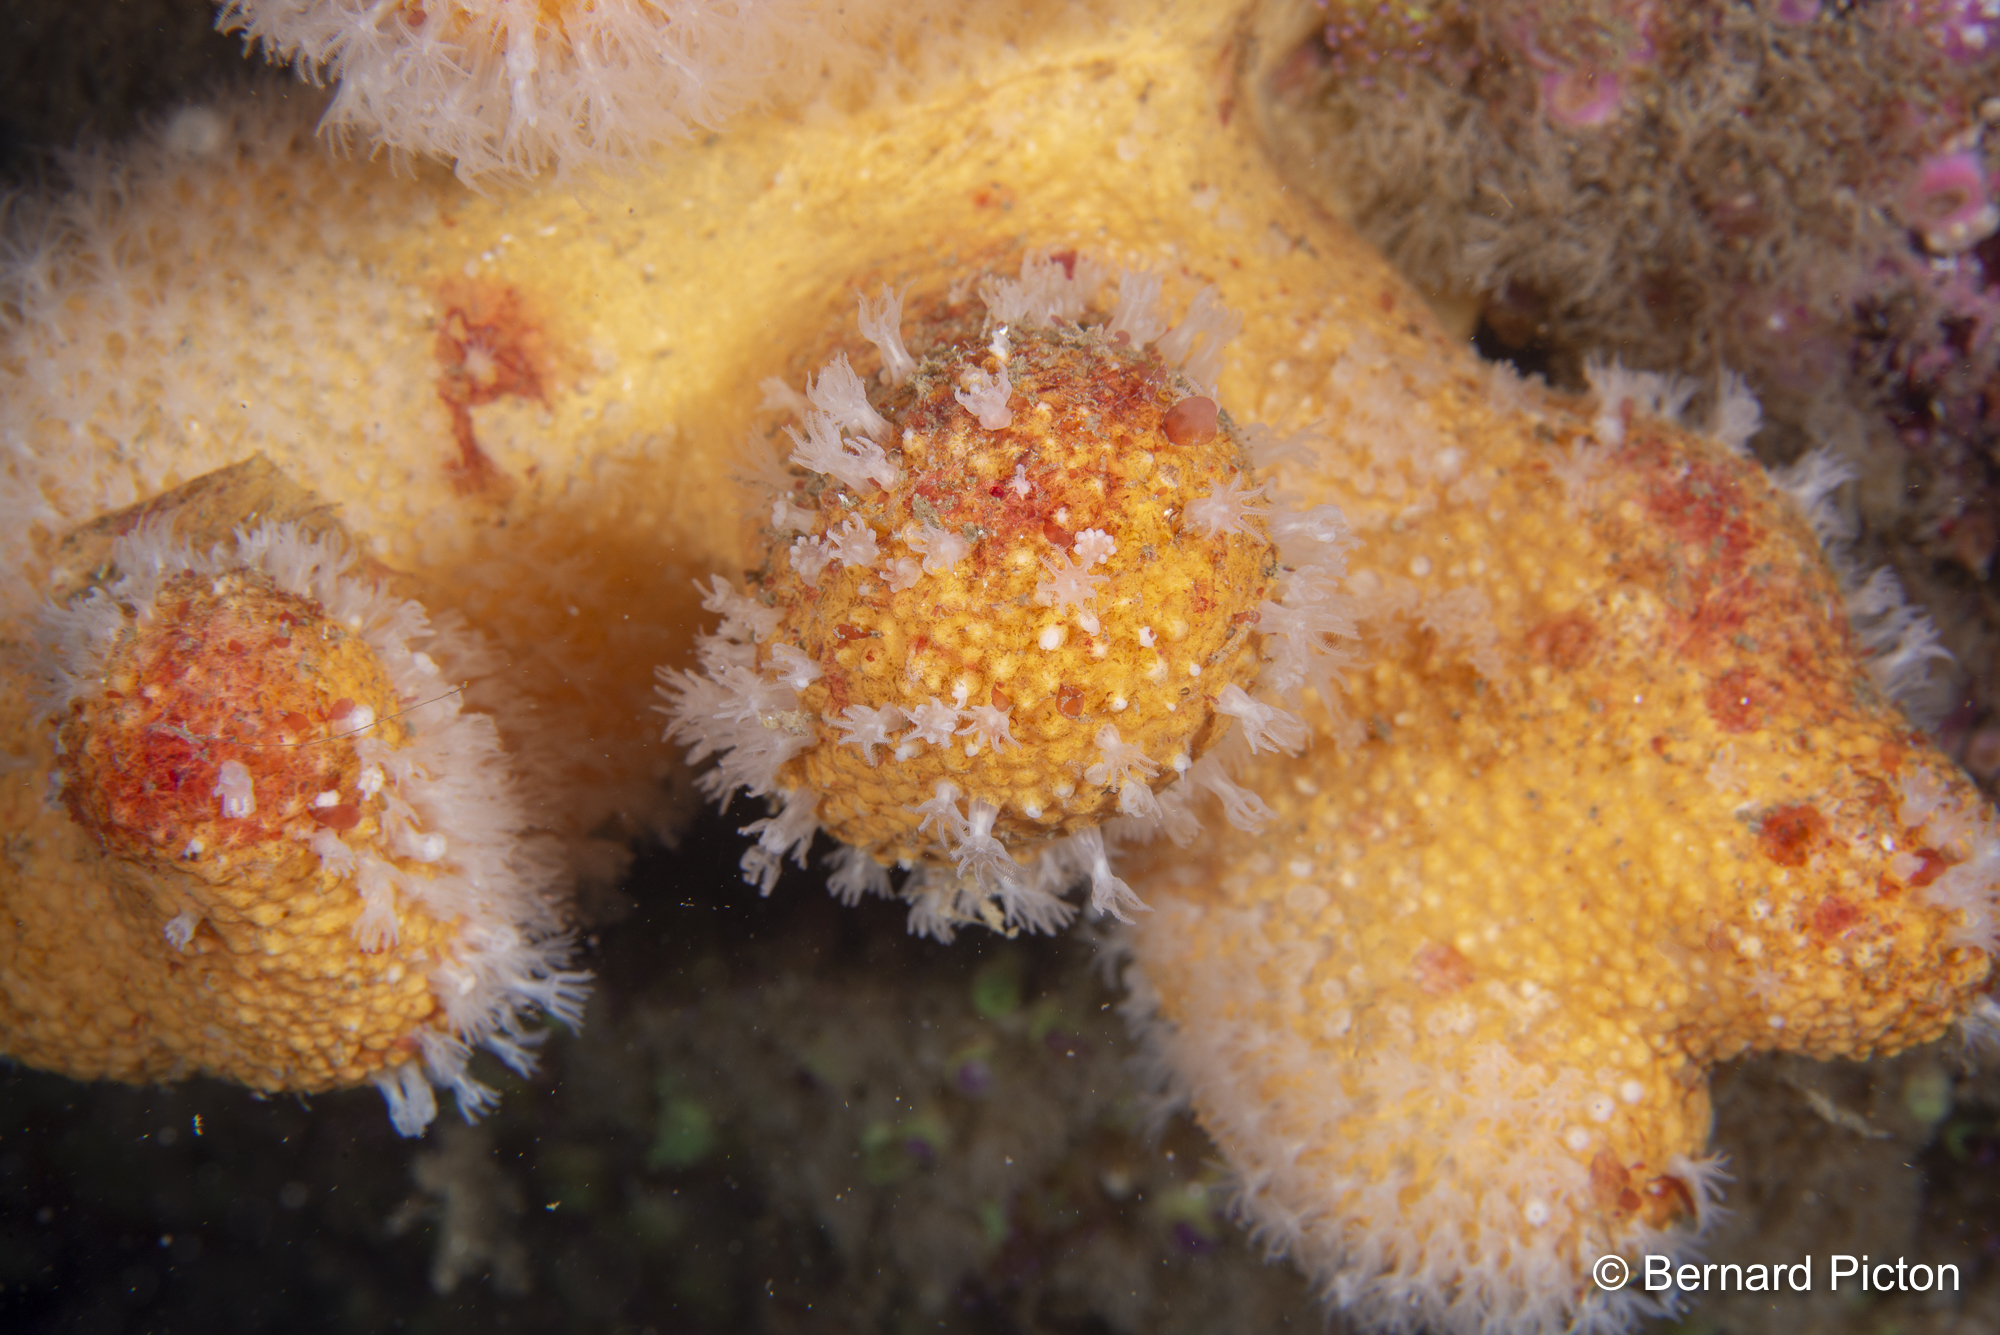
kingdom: Animalia
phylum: Cnidaria
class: Anthozoa
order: Malacalcyonacea
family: Alcyoniidae
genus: Alcyonium
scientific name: Alcyonium digitatum
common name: Dead man's fingers
